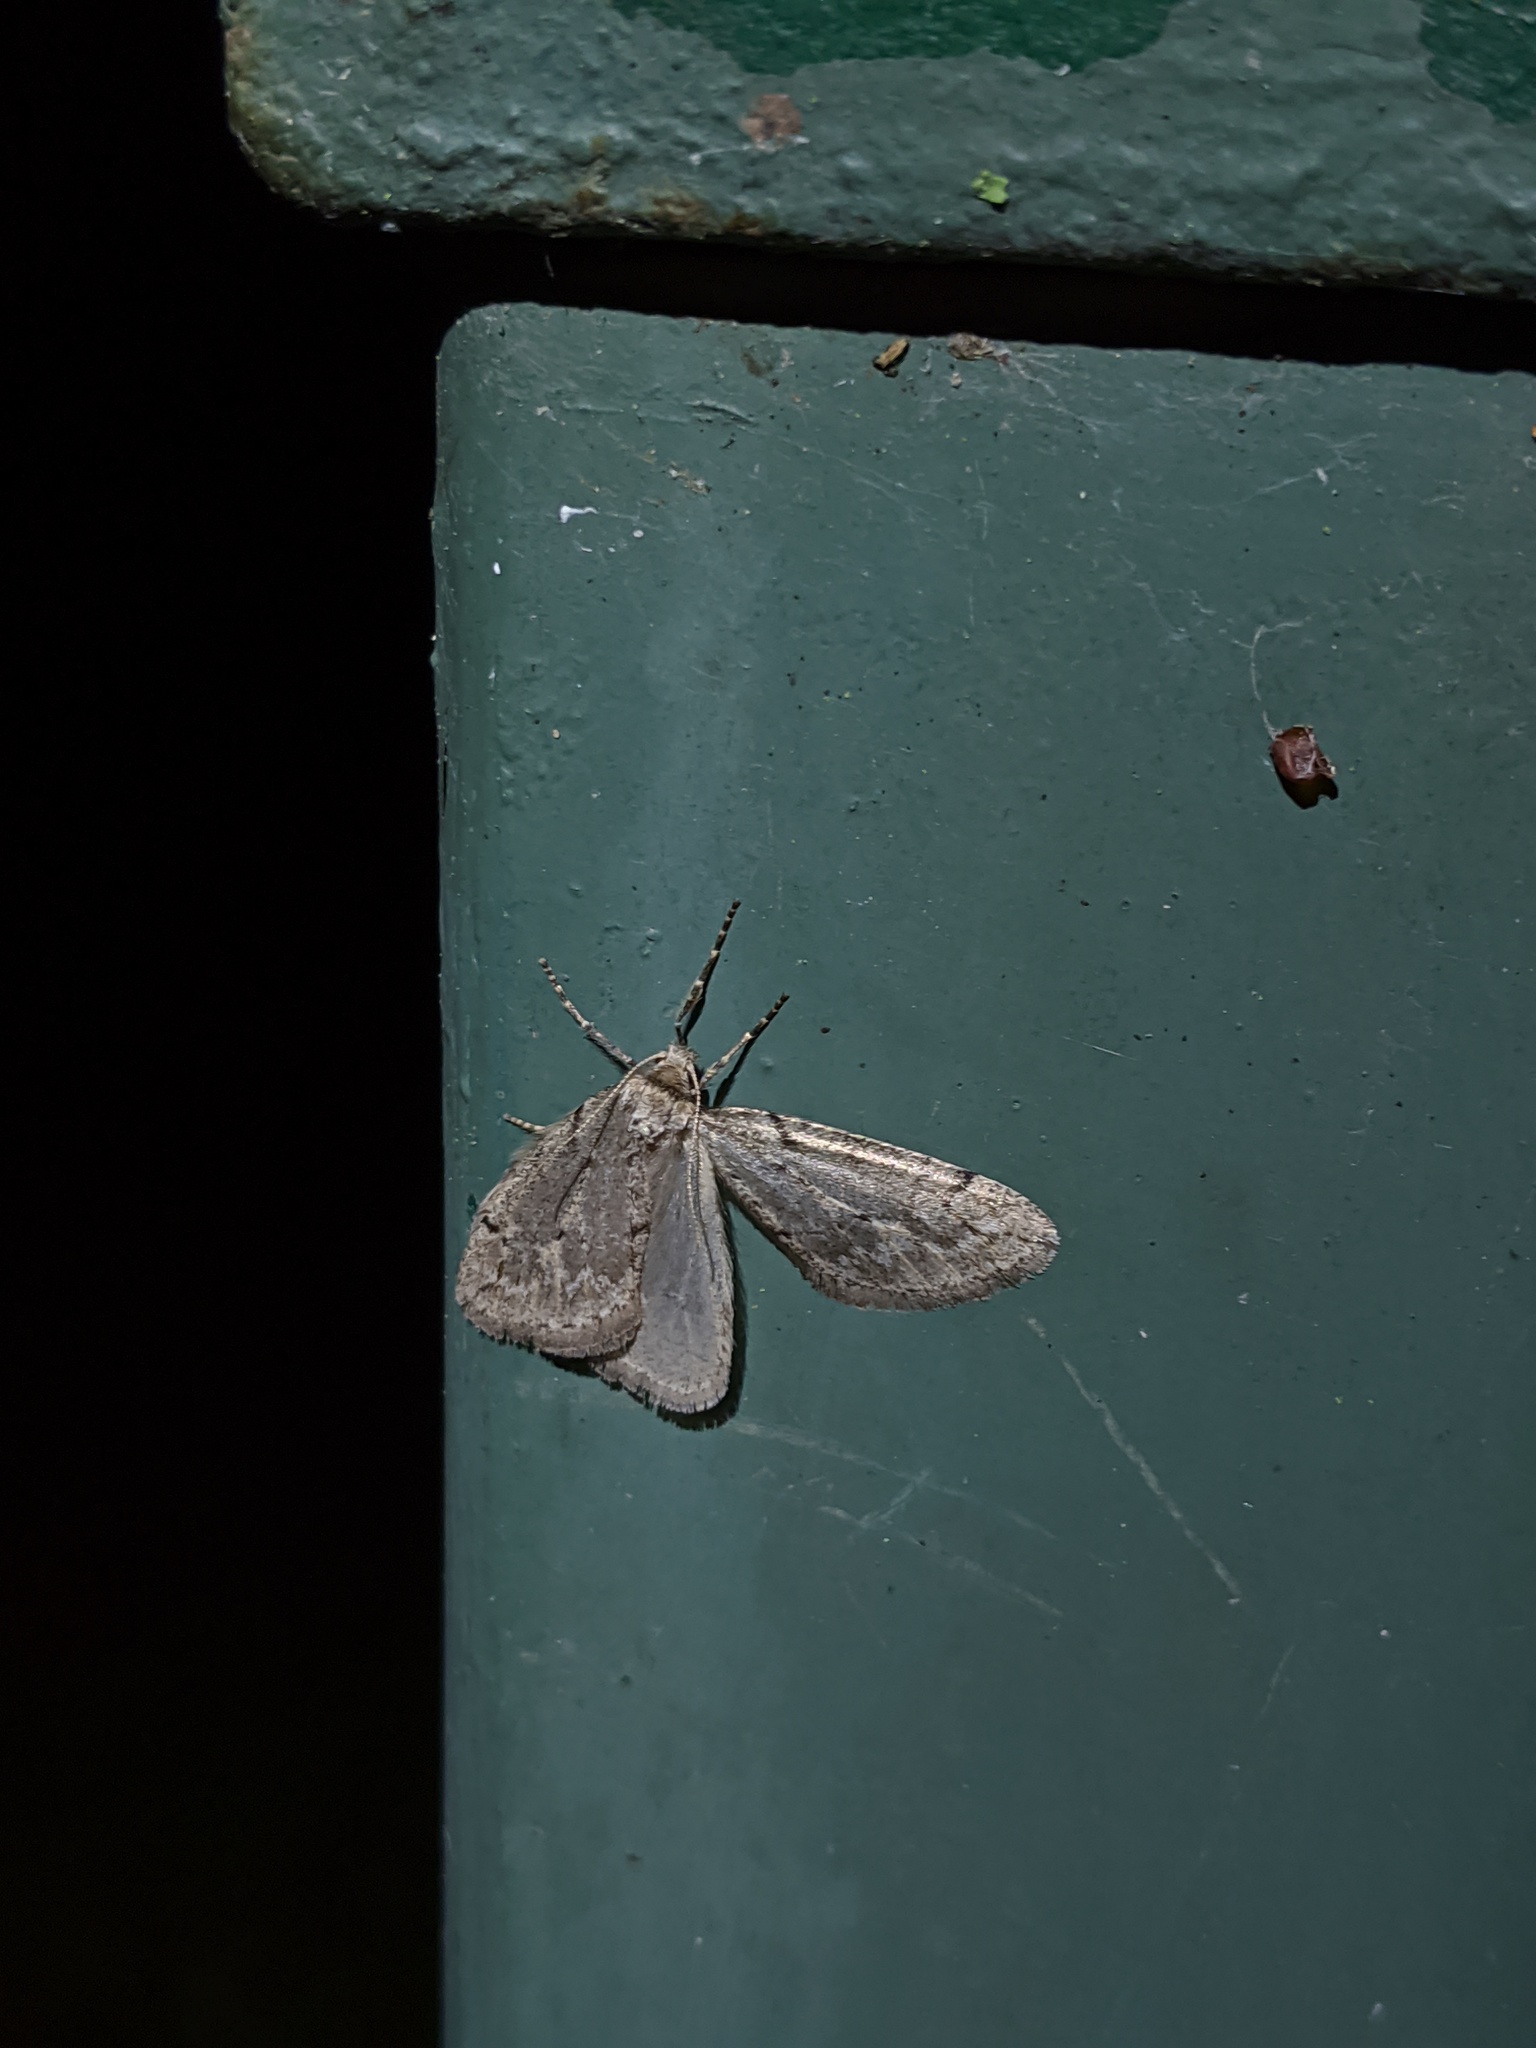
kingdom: Animalia
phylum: Arthropoda
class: Insecta
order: Lepidoptera
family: Geometridae
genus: Paleacrita
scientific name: Paleacrita vernata
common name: Spring cankerworm
